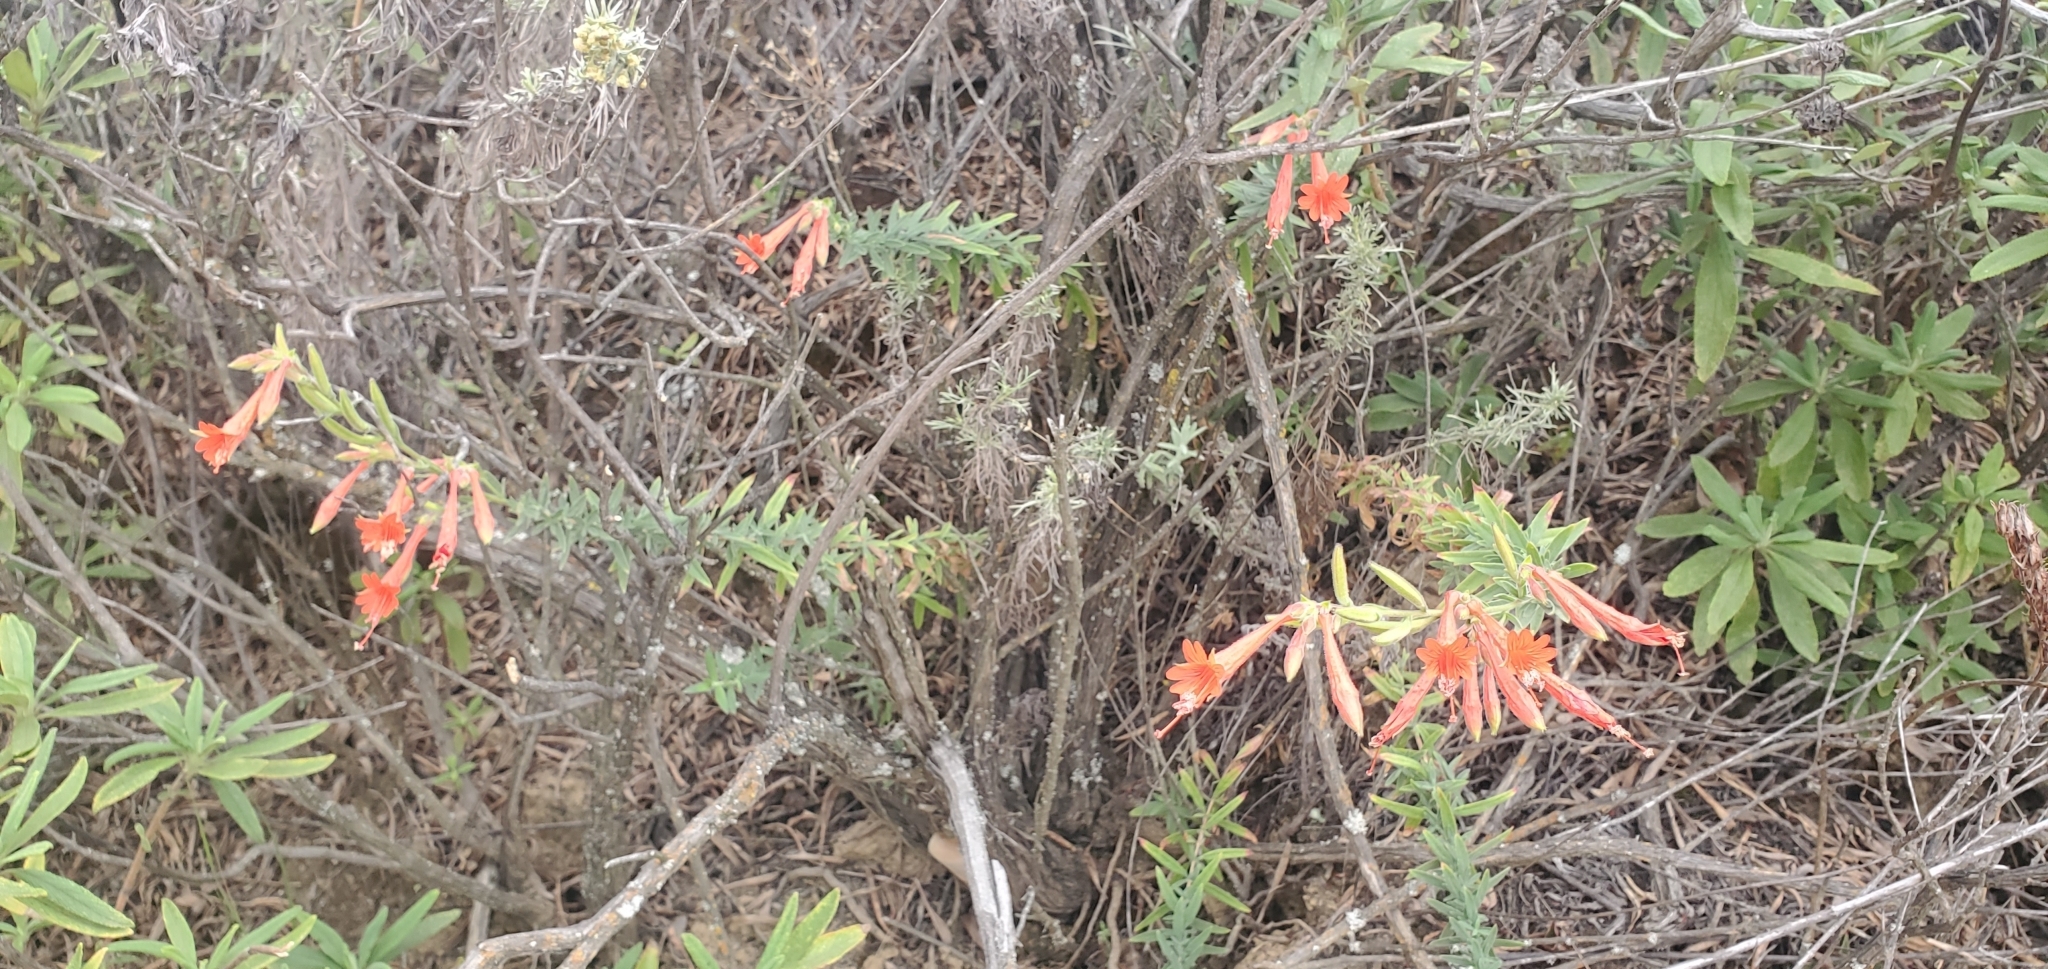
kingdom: Plantae
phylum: Tracheophyta
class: Magnoliopsida
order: Myrtales
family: Onagraceae
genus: Epilobium
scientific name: Epilobium canum
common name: California-fuchsia
